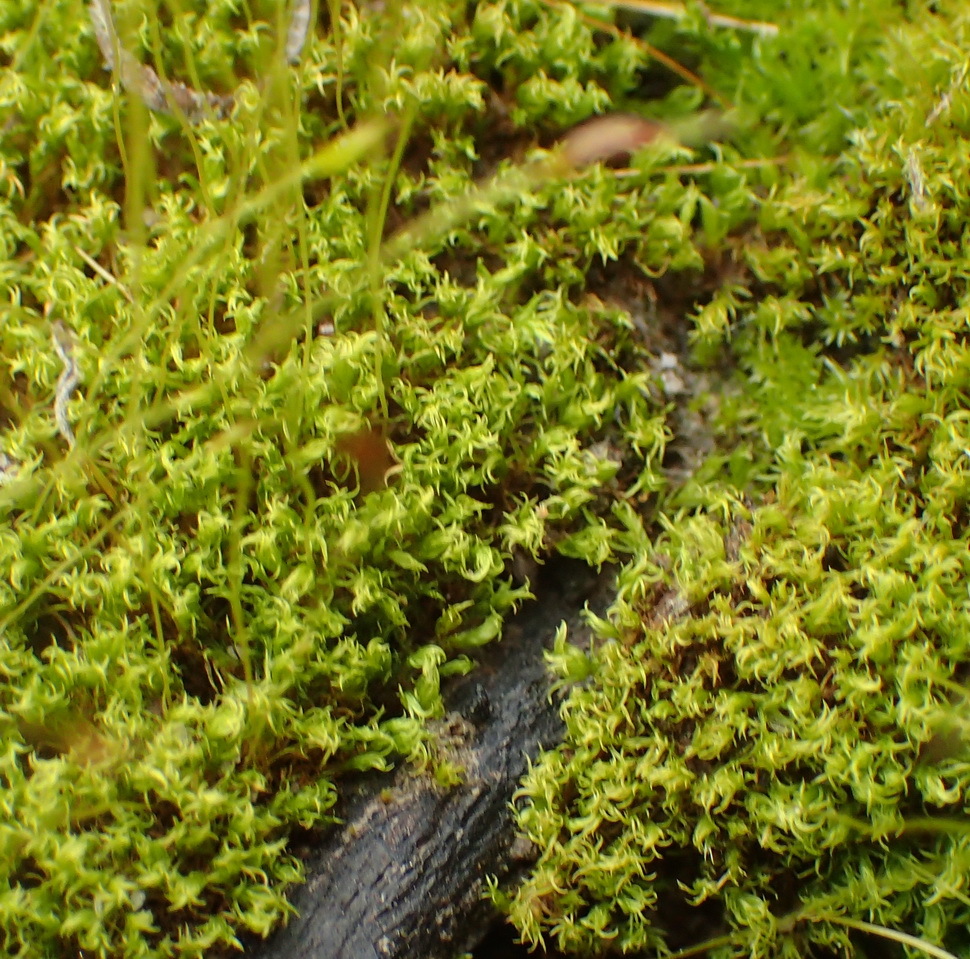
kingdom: Plantae
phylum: Bryophyta
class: Bryopsida
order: Dicranales
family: Ditrichaceae
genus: Ceratodon
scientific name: Ceratodon purpureus
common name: Redshank
